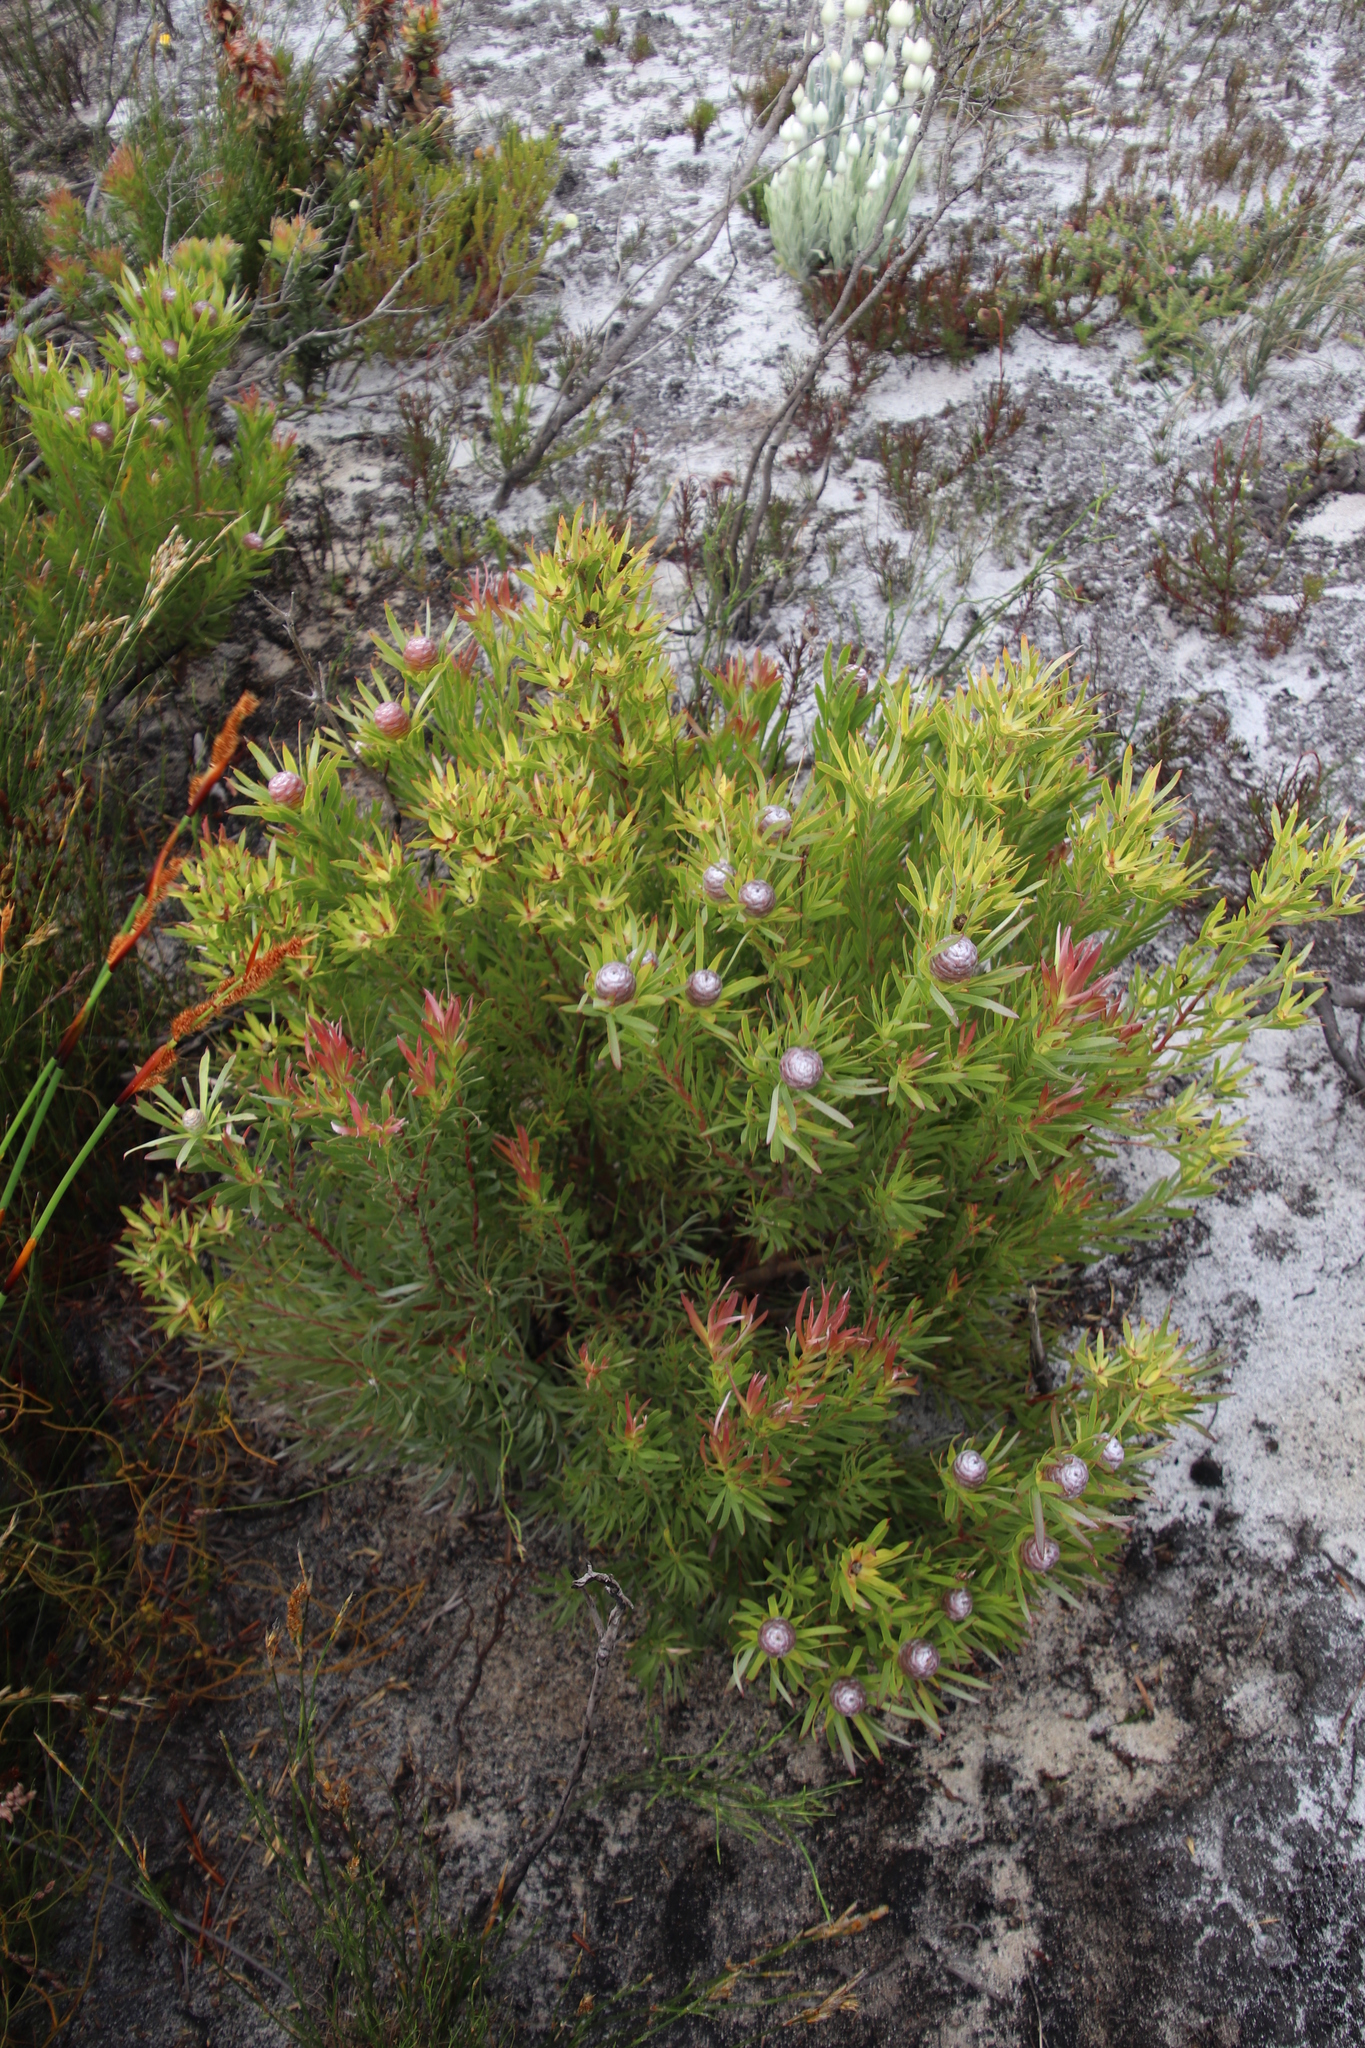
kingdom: Plantae
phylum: Tracheophyta
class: Magnoliopsida
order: Proteales
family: Proteaceae
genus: Leucadendron
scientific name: Leucadendron xanthoconus
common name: Sickle-leaf conebush
